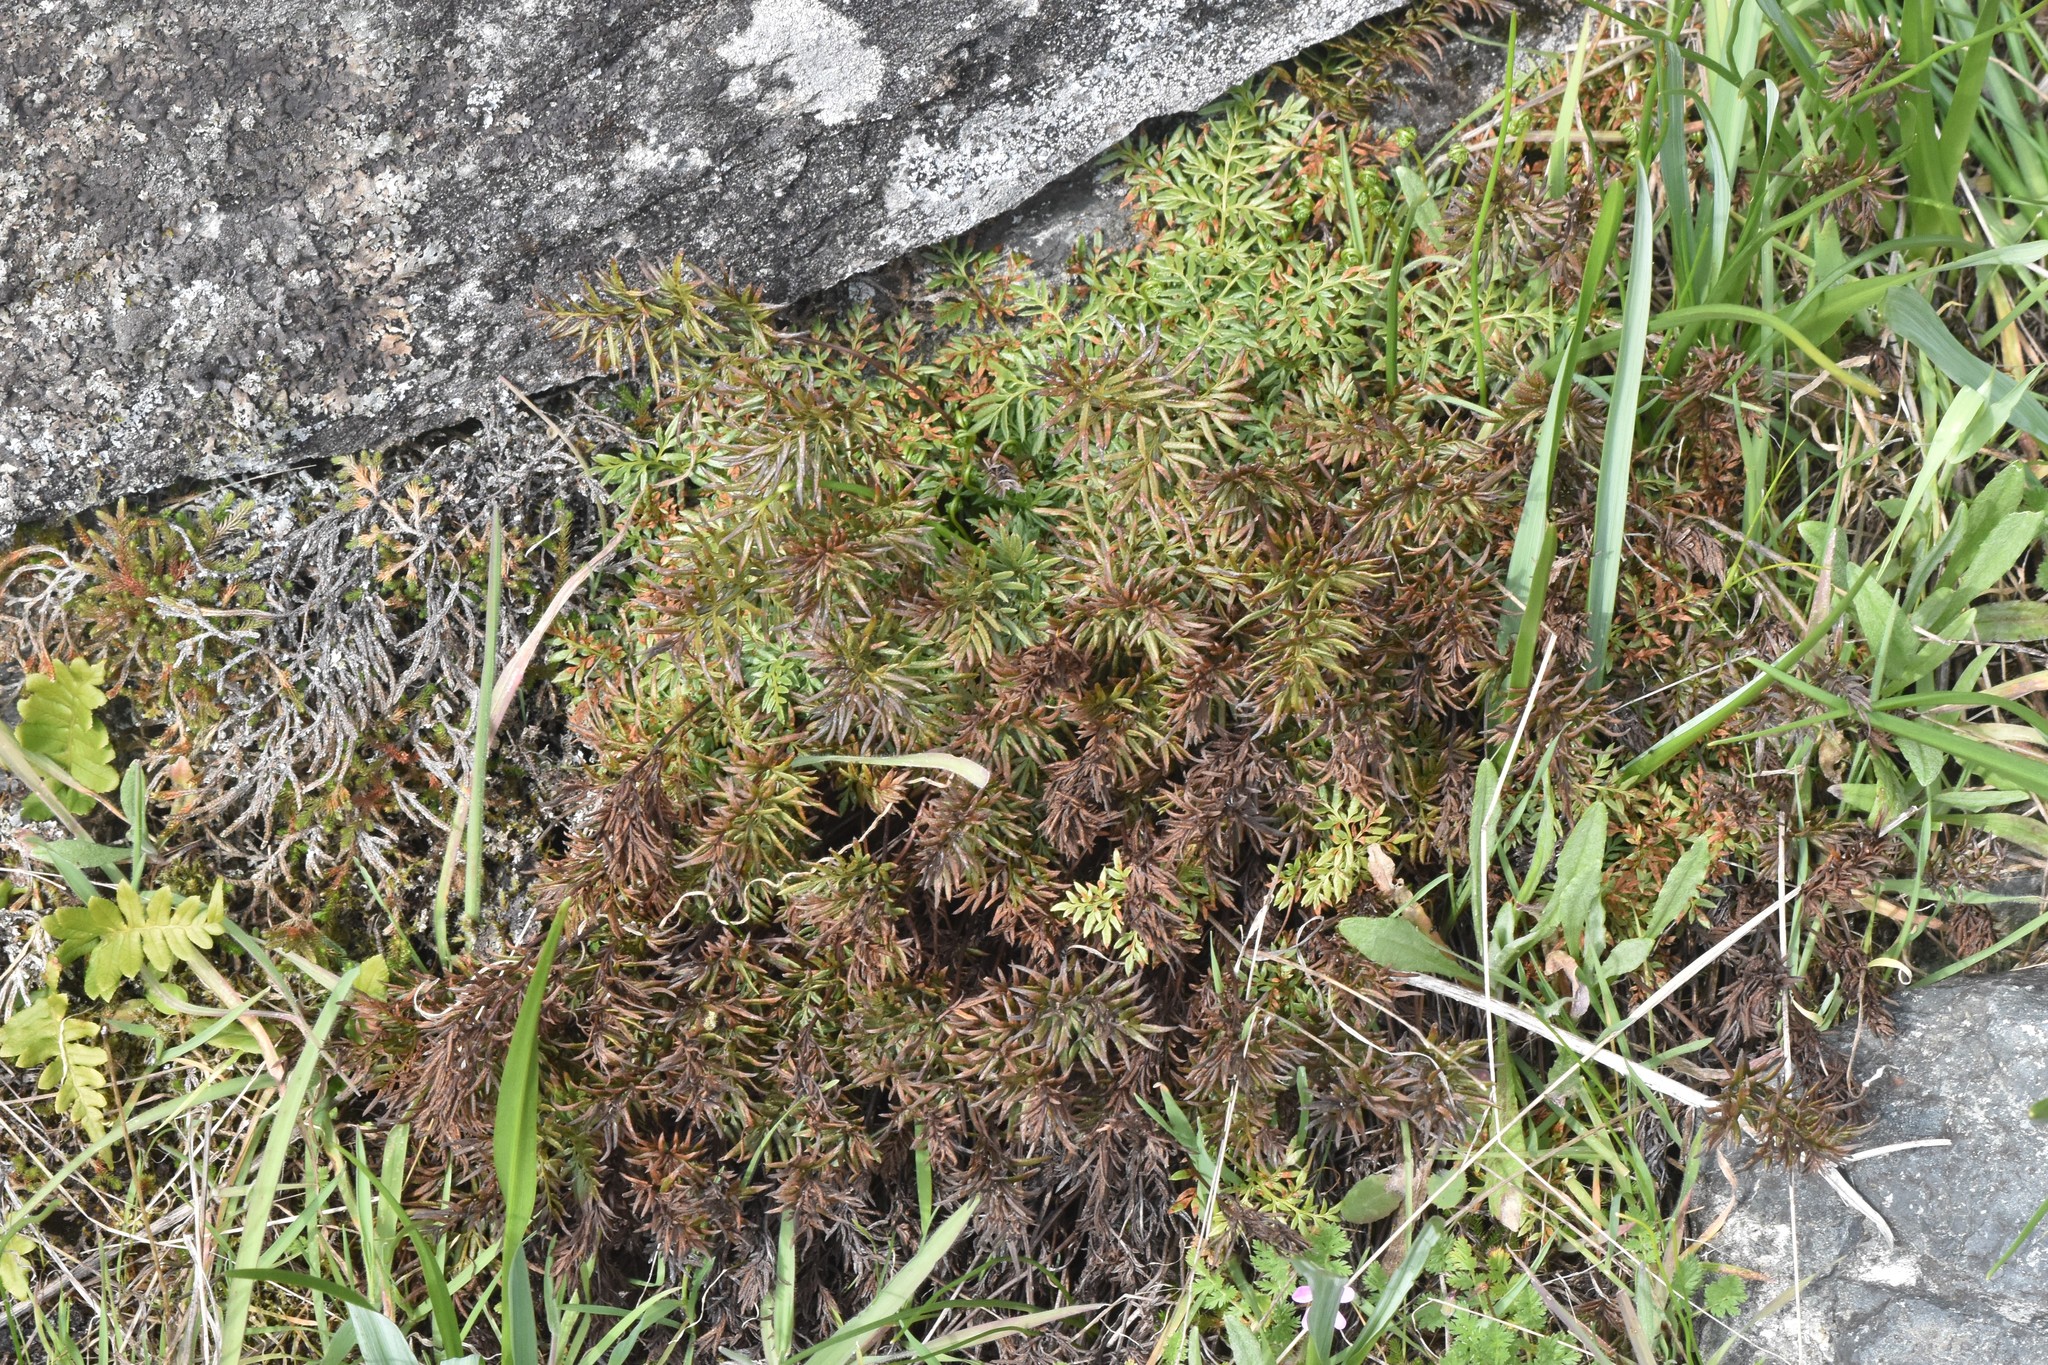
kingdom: Plantae
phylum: Tracheophyta
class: Polypodiopsida
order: Polypodiales
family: Pteridaceae
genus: Aspidotis
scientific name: Aspidotis densa
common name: Indian's dream
